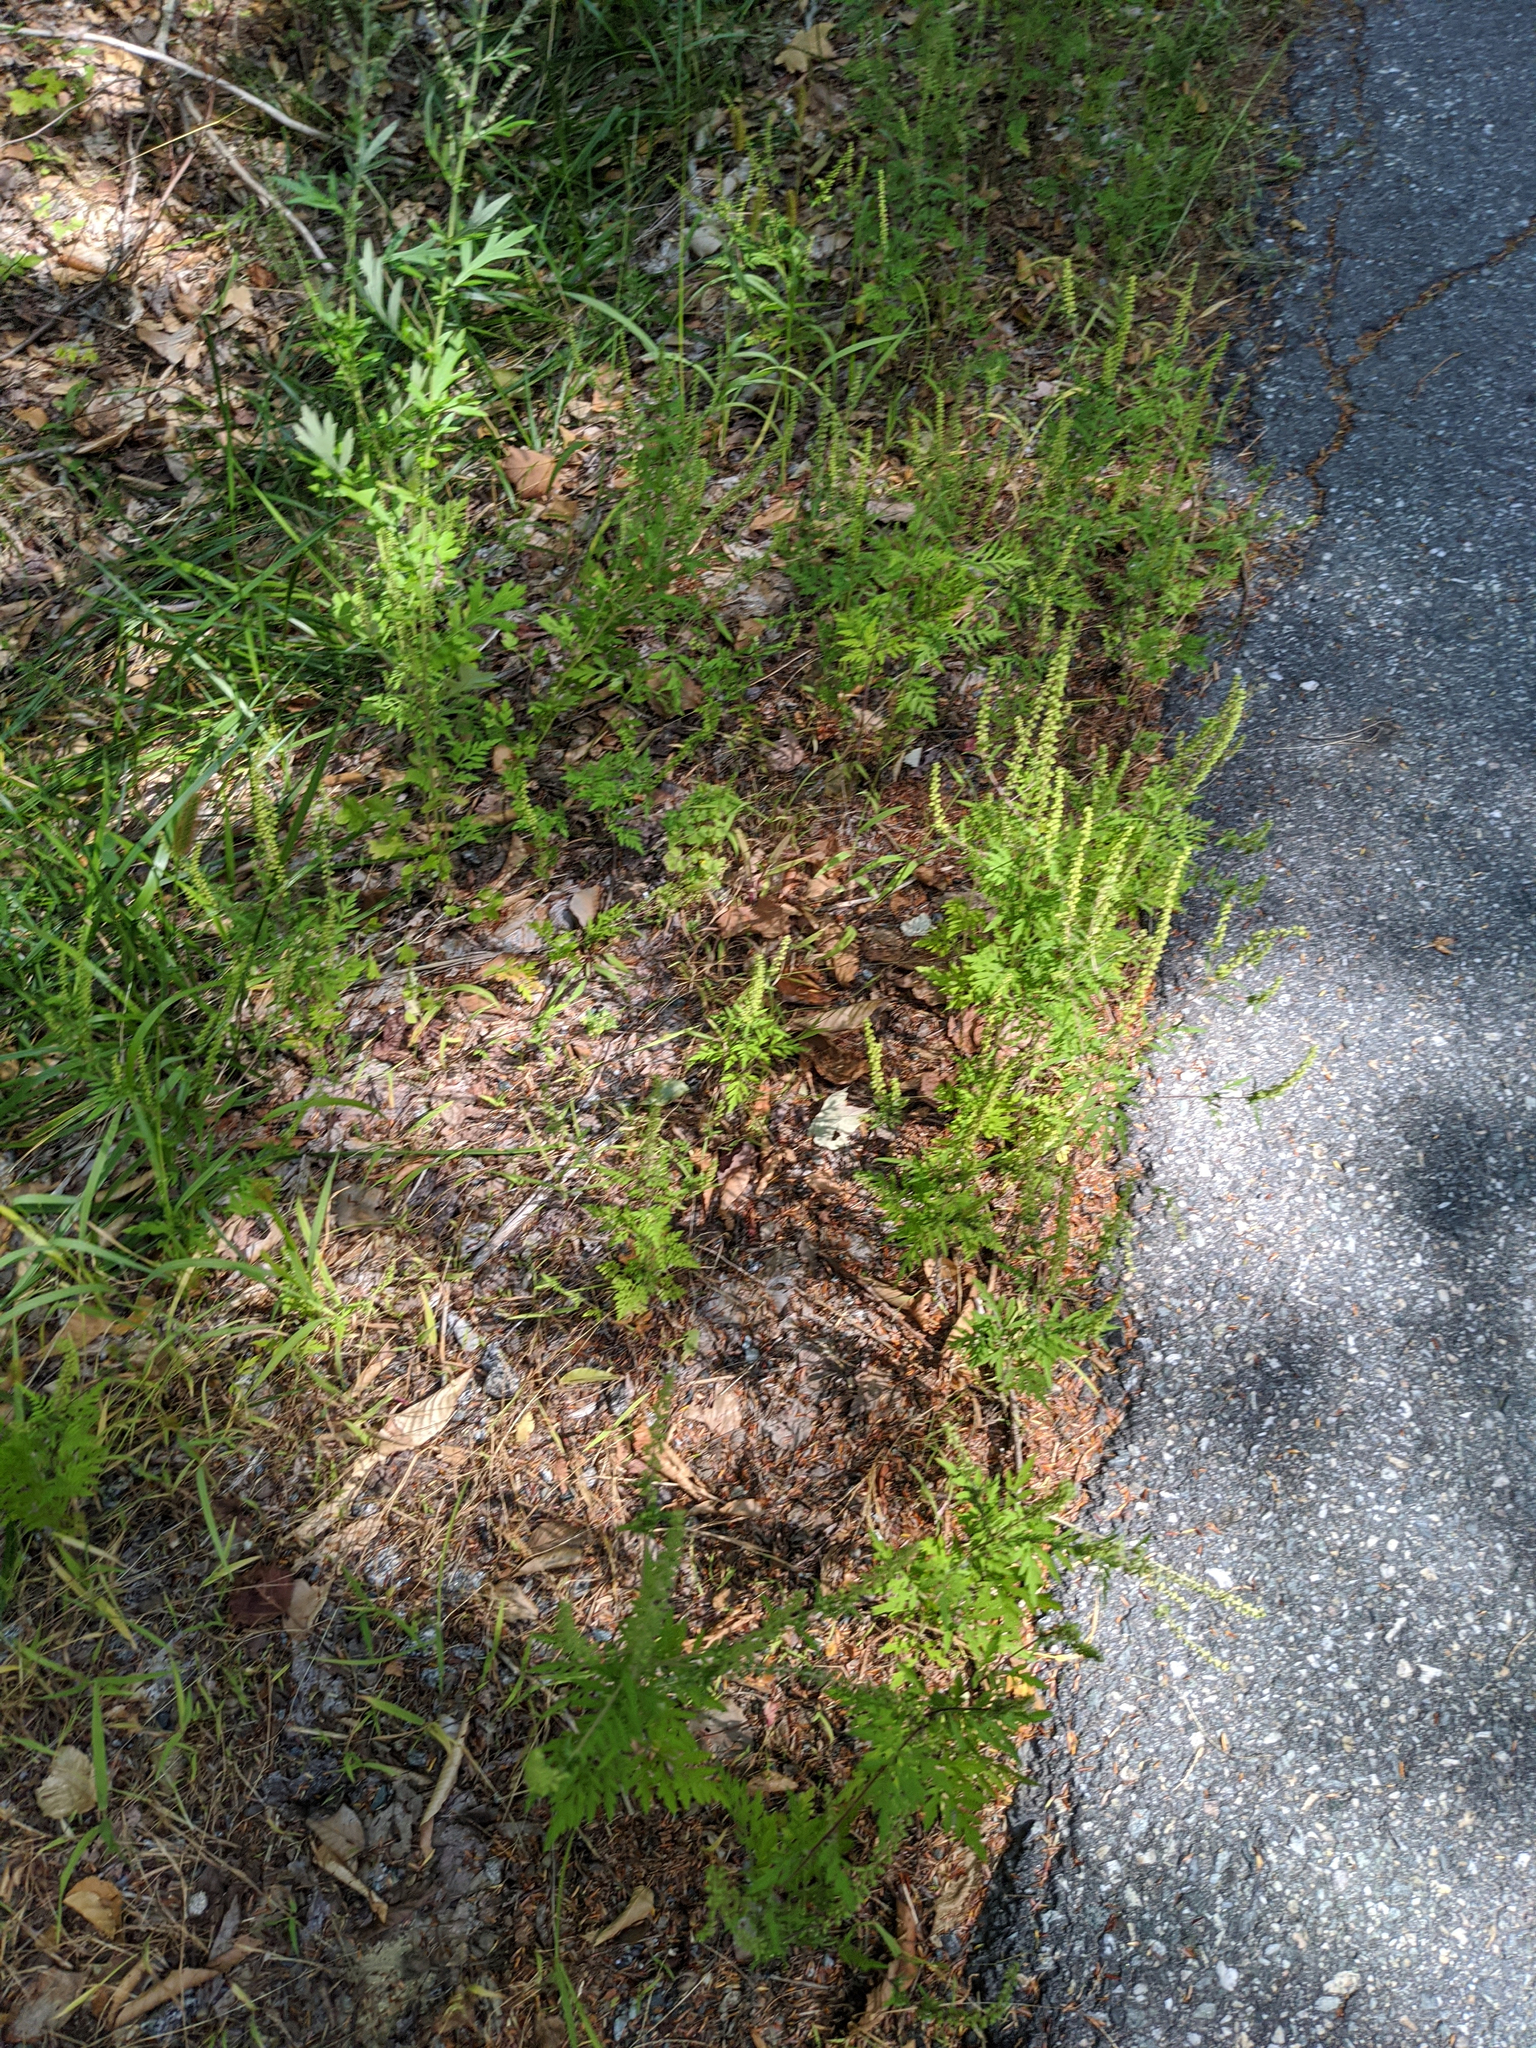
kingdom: Plantae
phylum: Tracheophyta
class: Magnoliopsida
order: Asterales
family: Asteraceae
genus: Ambrosia
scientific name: Ambrosia artemisiifolia
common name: Annual ragweed
